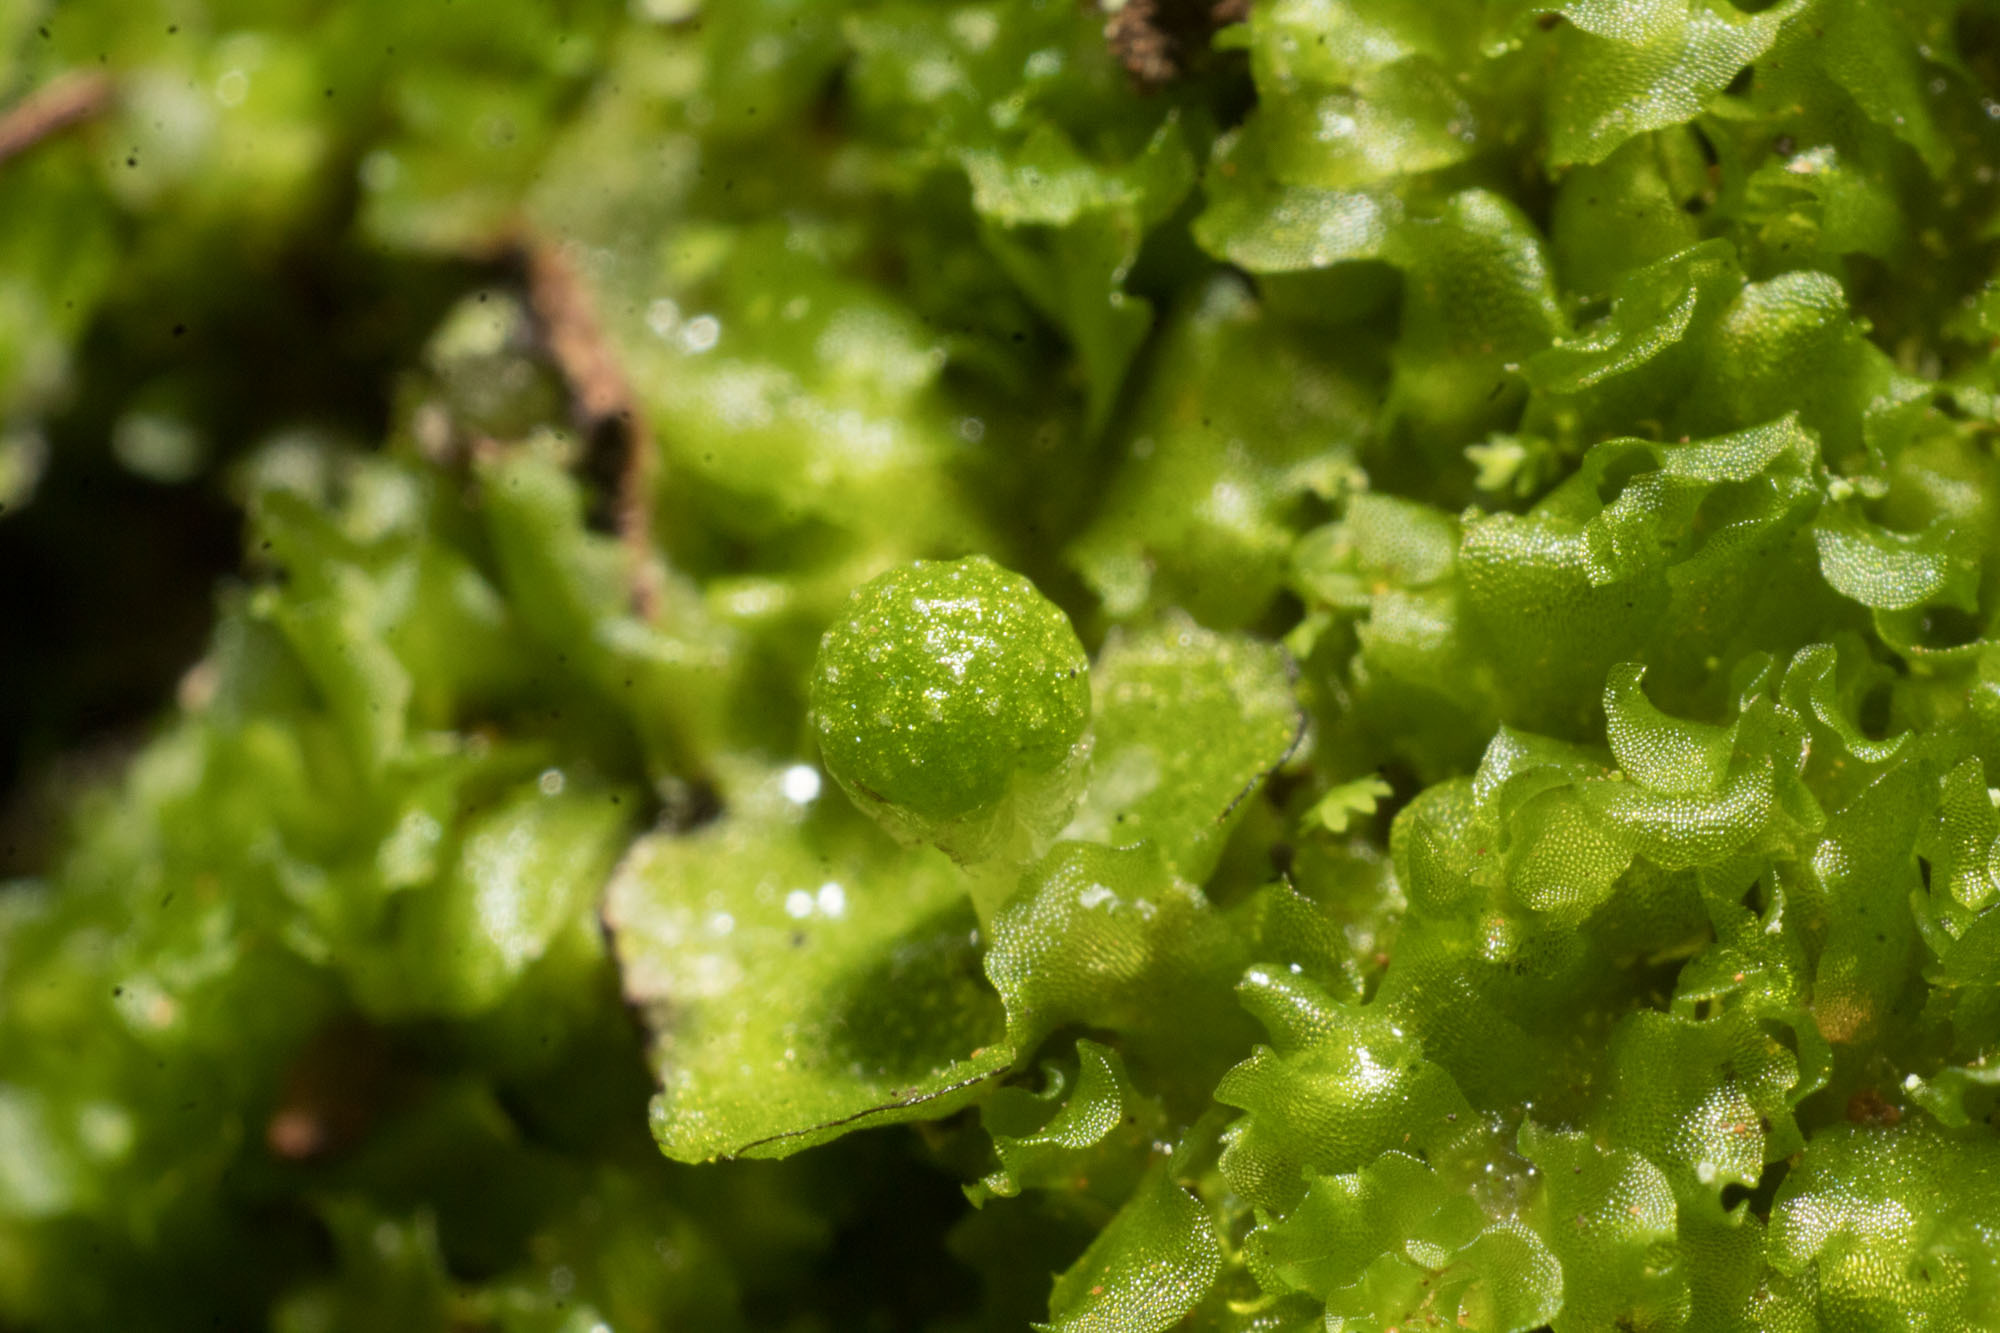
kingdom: Plantae
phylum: Marchantiophyta
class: Marchantiopsida
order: Marchantiales
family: Aytoniaceae
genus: Asterella
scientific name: Asterella drummondii
